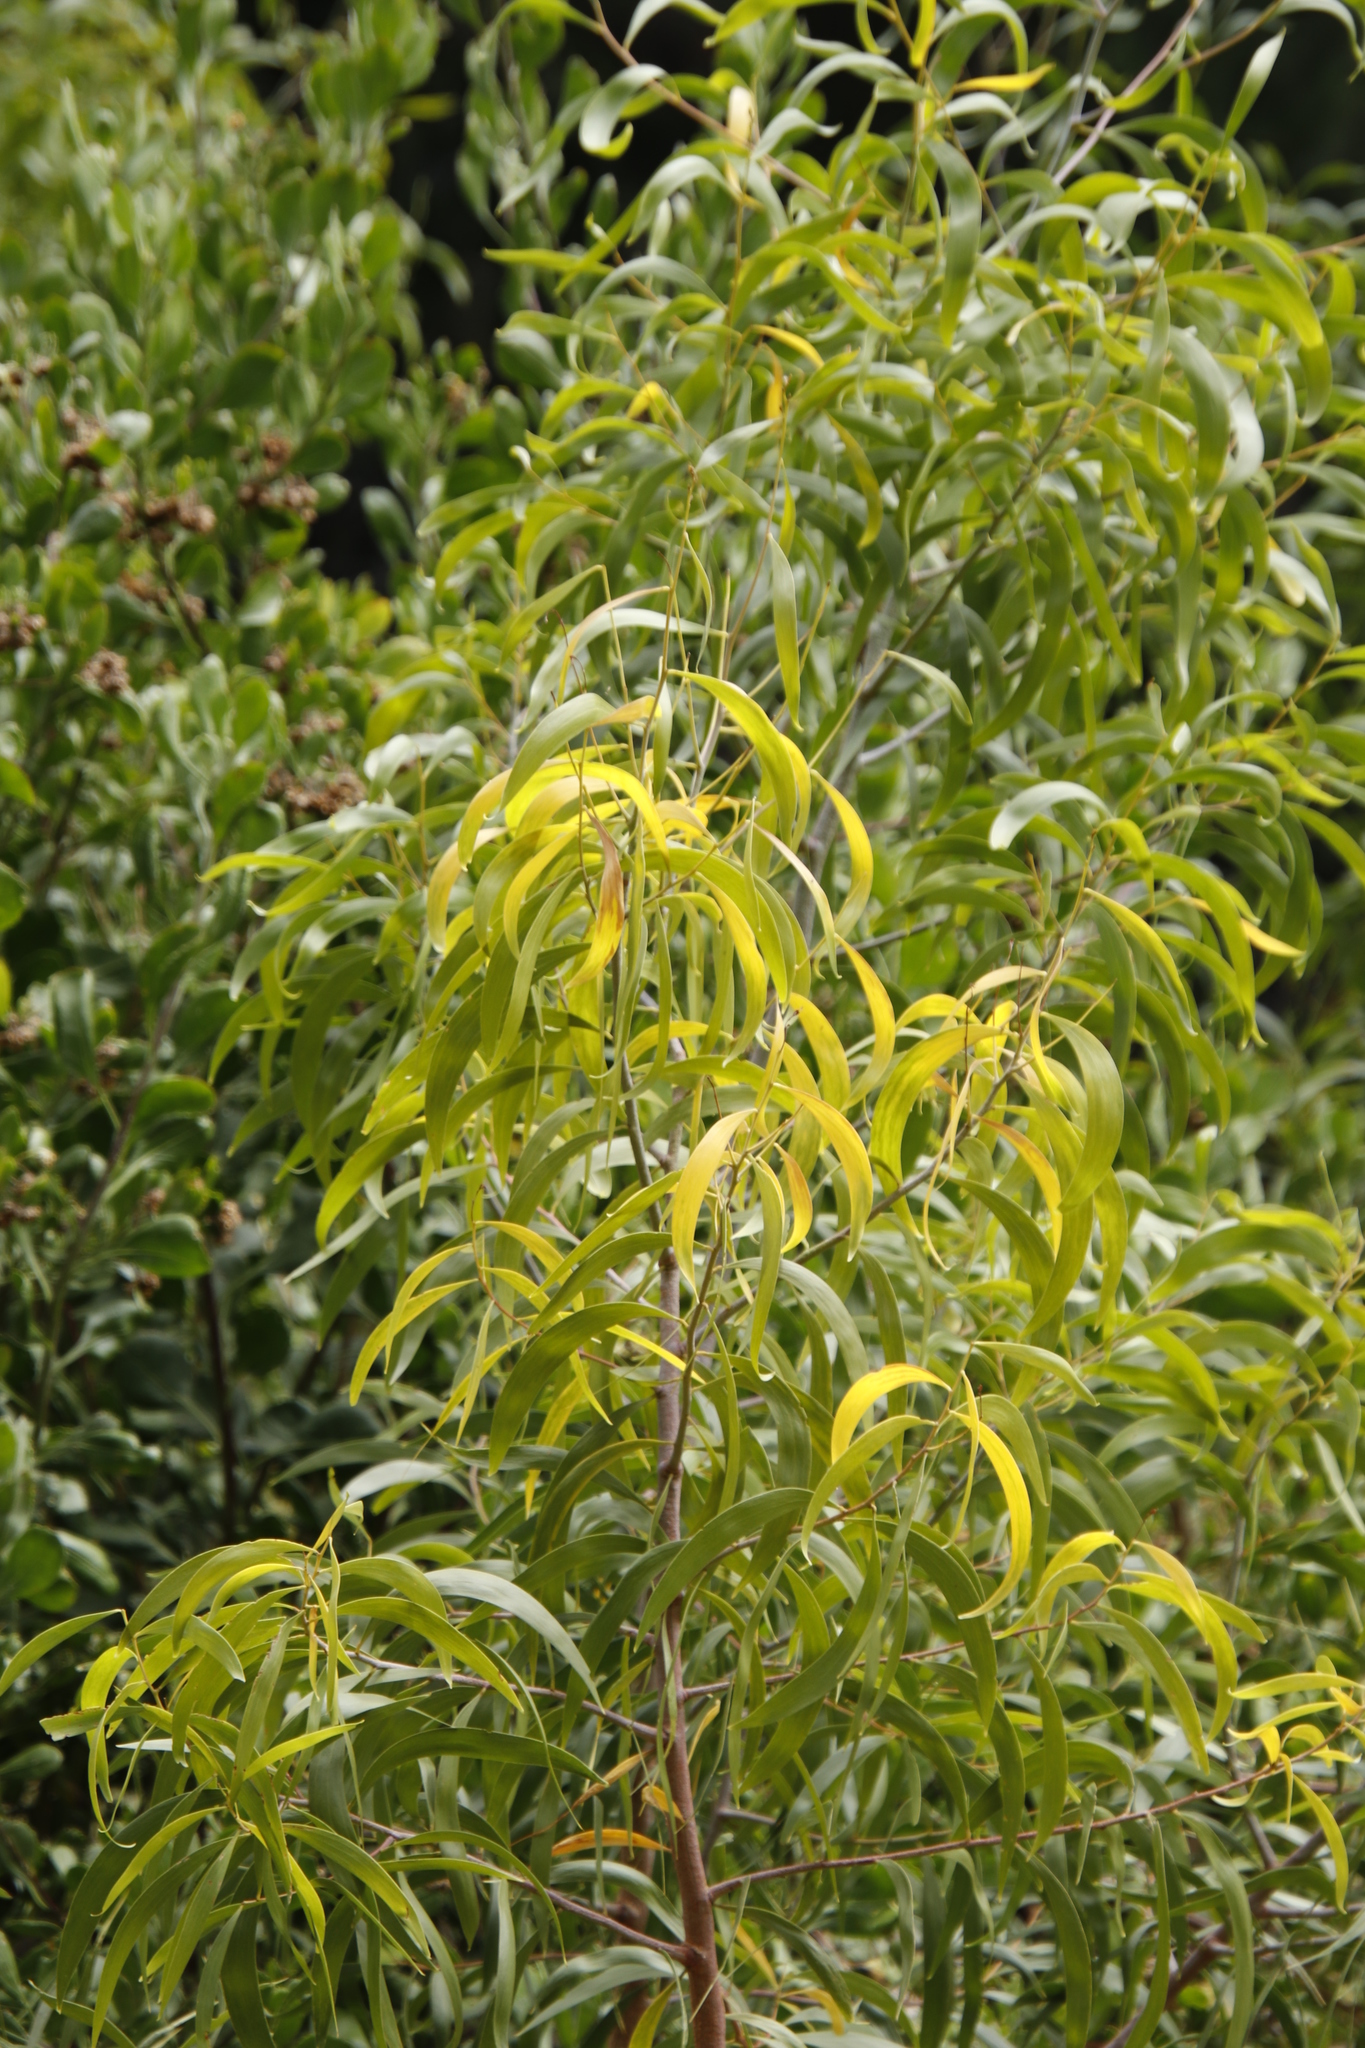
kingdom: Plantae
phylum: Tracheophyta
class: Magnoliopsida
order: Fabales
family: Fabaceae
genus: Acacia
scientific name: Acacia implexa
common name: Black wattle
